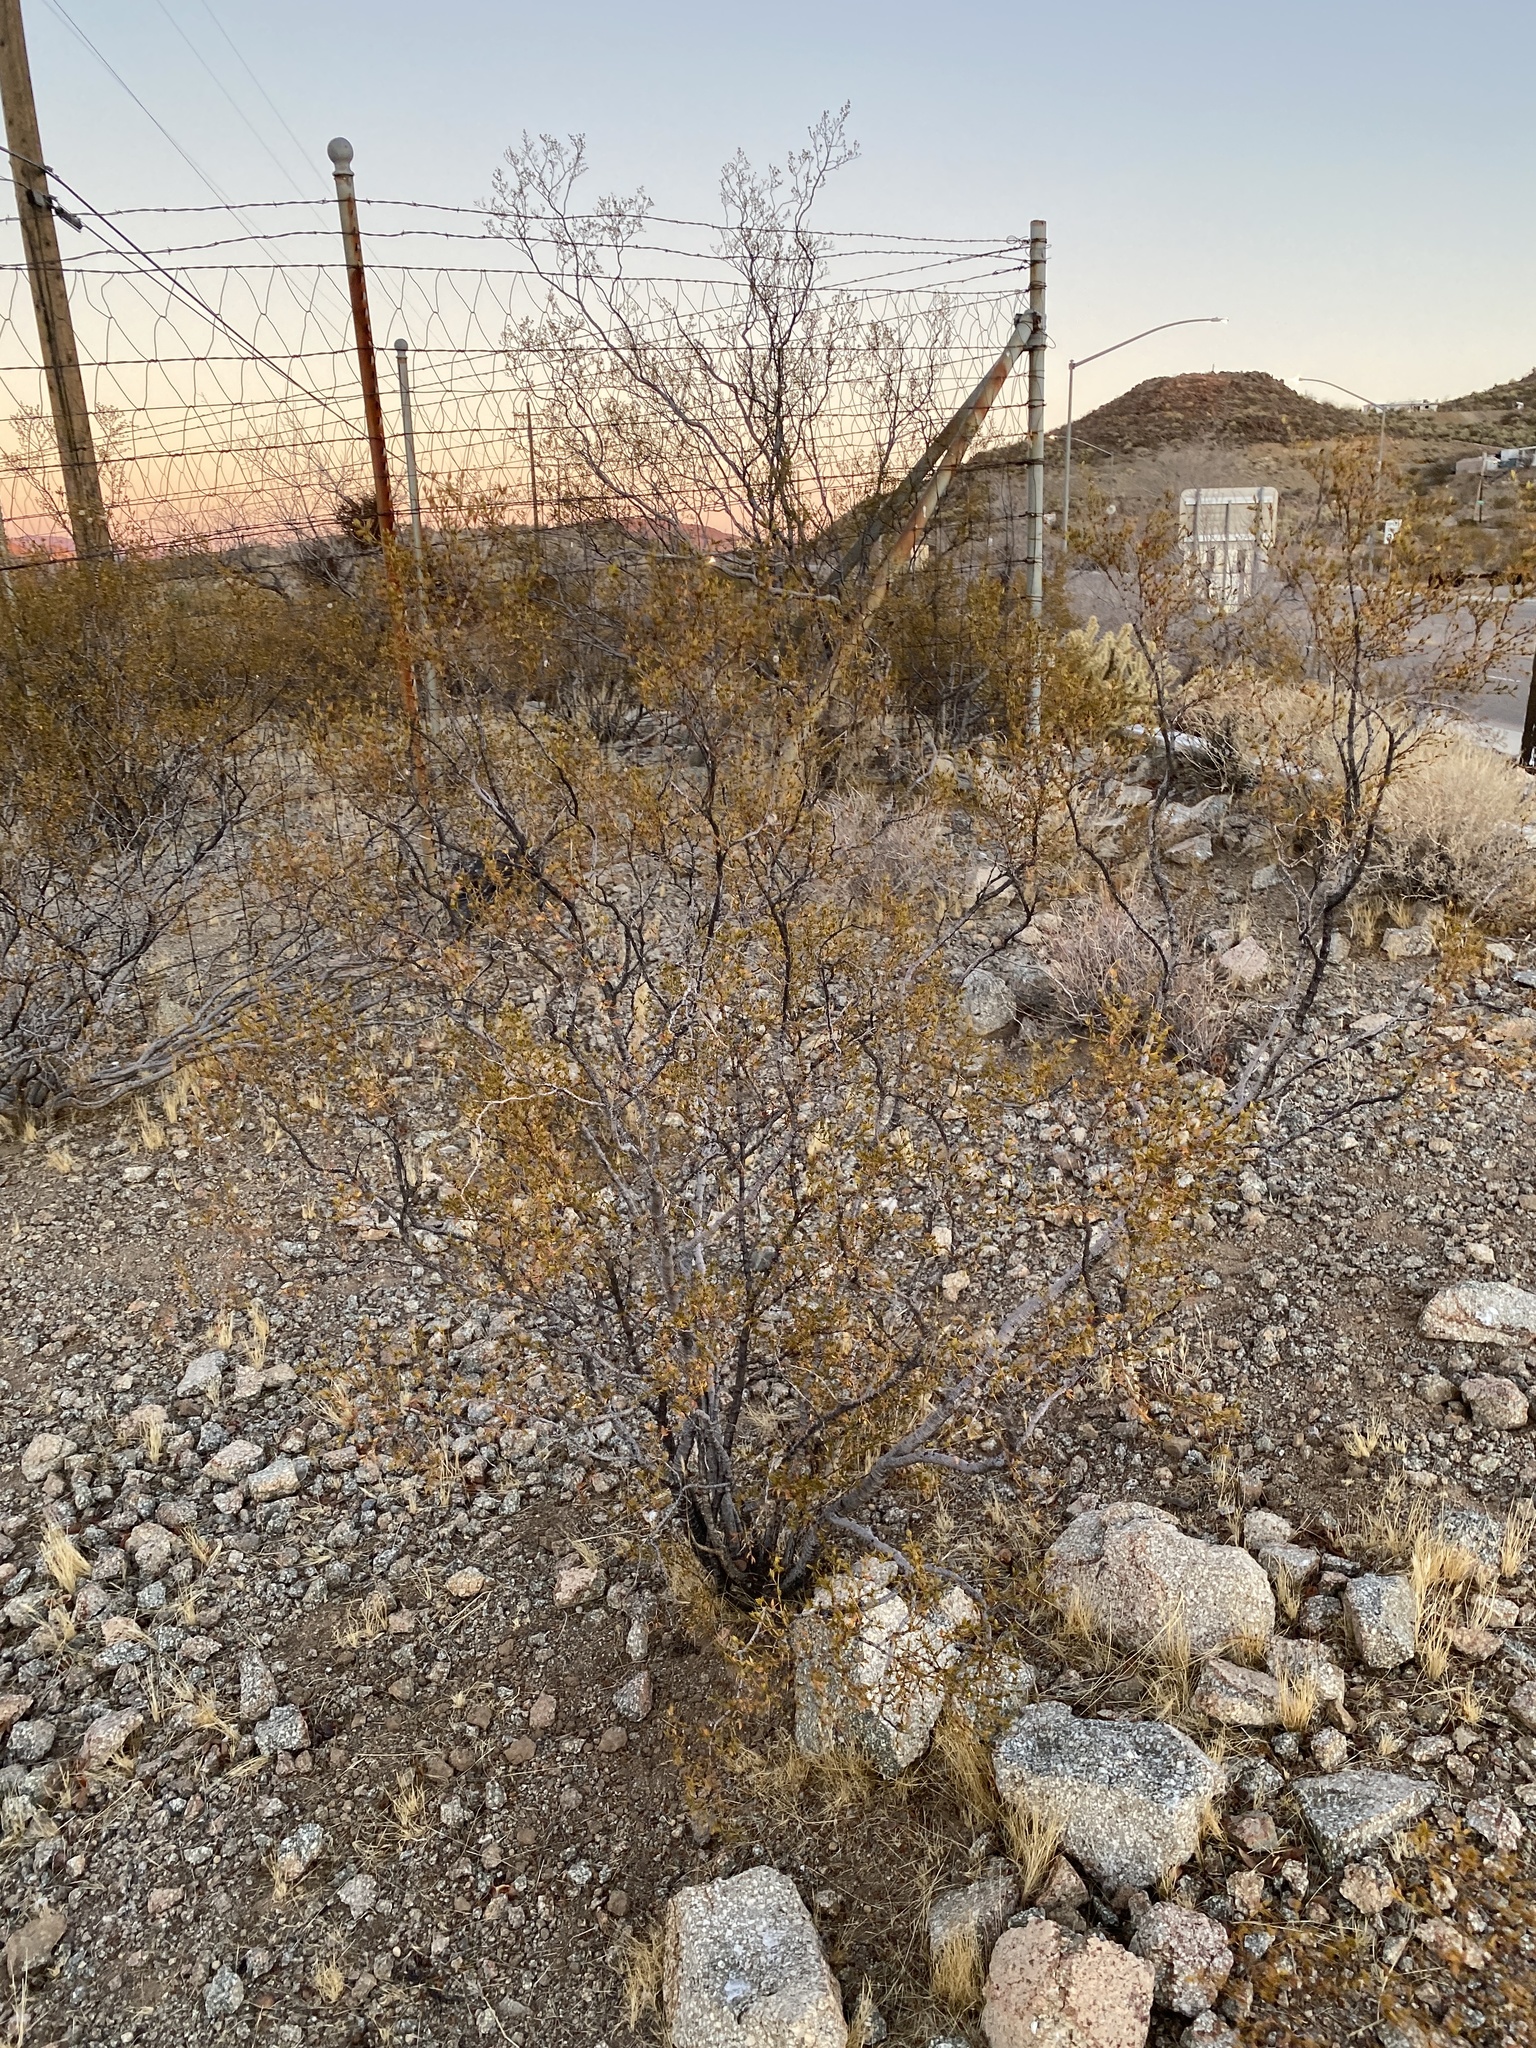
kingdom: Plantae
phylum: Tracheophyta
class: Magnoliopsida
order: Zygophyllales
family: Zygophyllaceae
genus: Larrea
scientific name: Larrea tridentata
